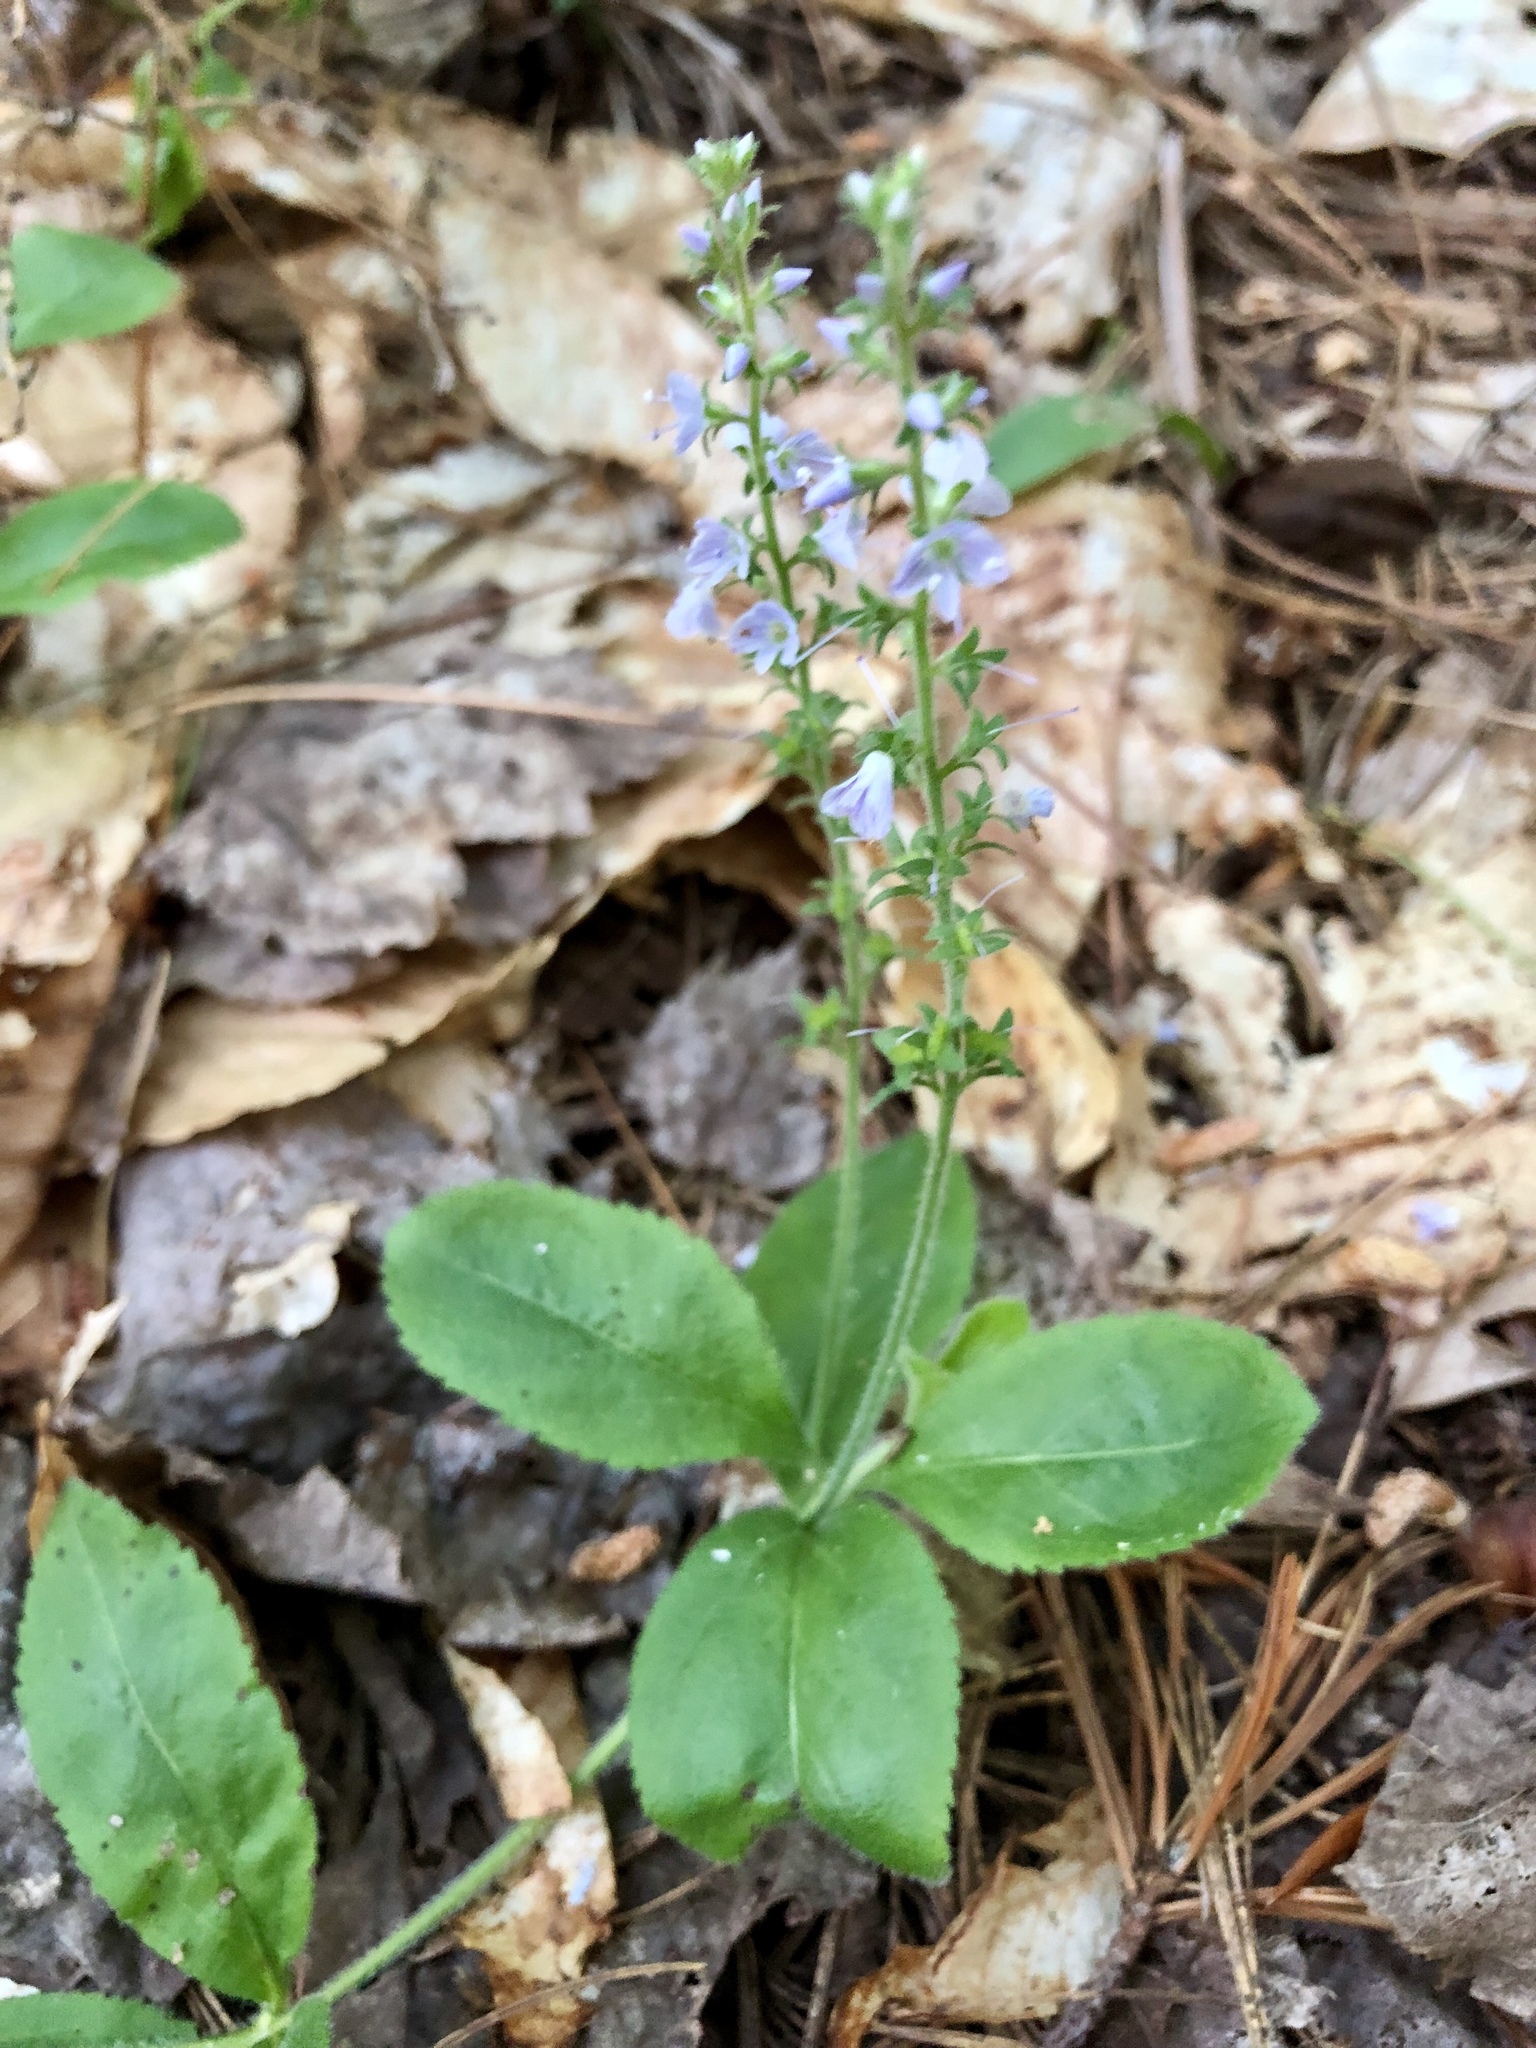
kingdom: Plantae
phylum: Tracheophyta
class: Magnoliopsida
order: Lamiales
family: Plantaginaceae
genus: Veronica
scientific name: Veronica officinalis
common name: Common speedwell
